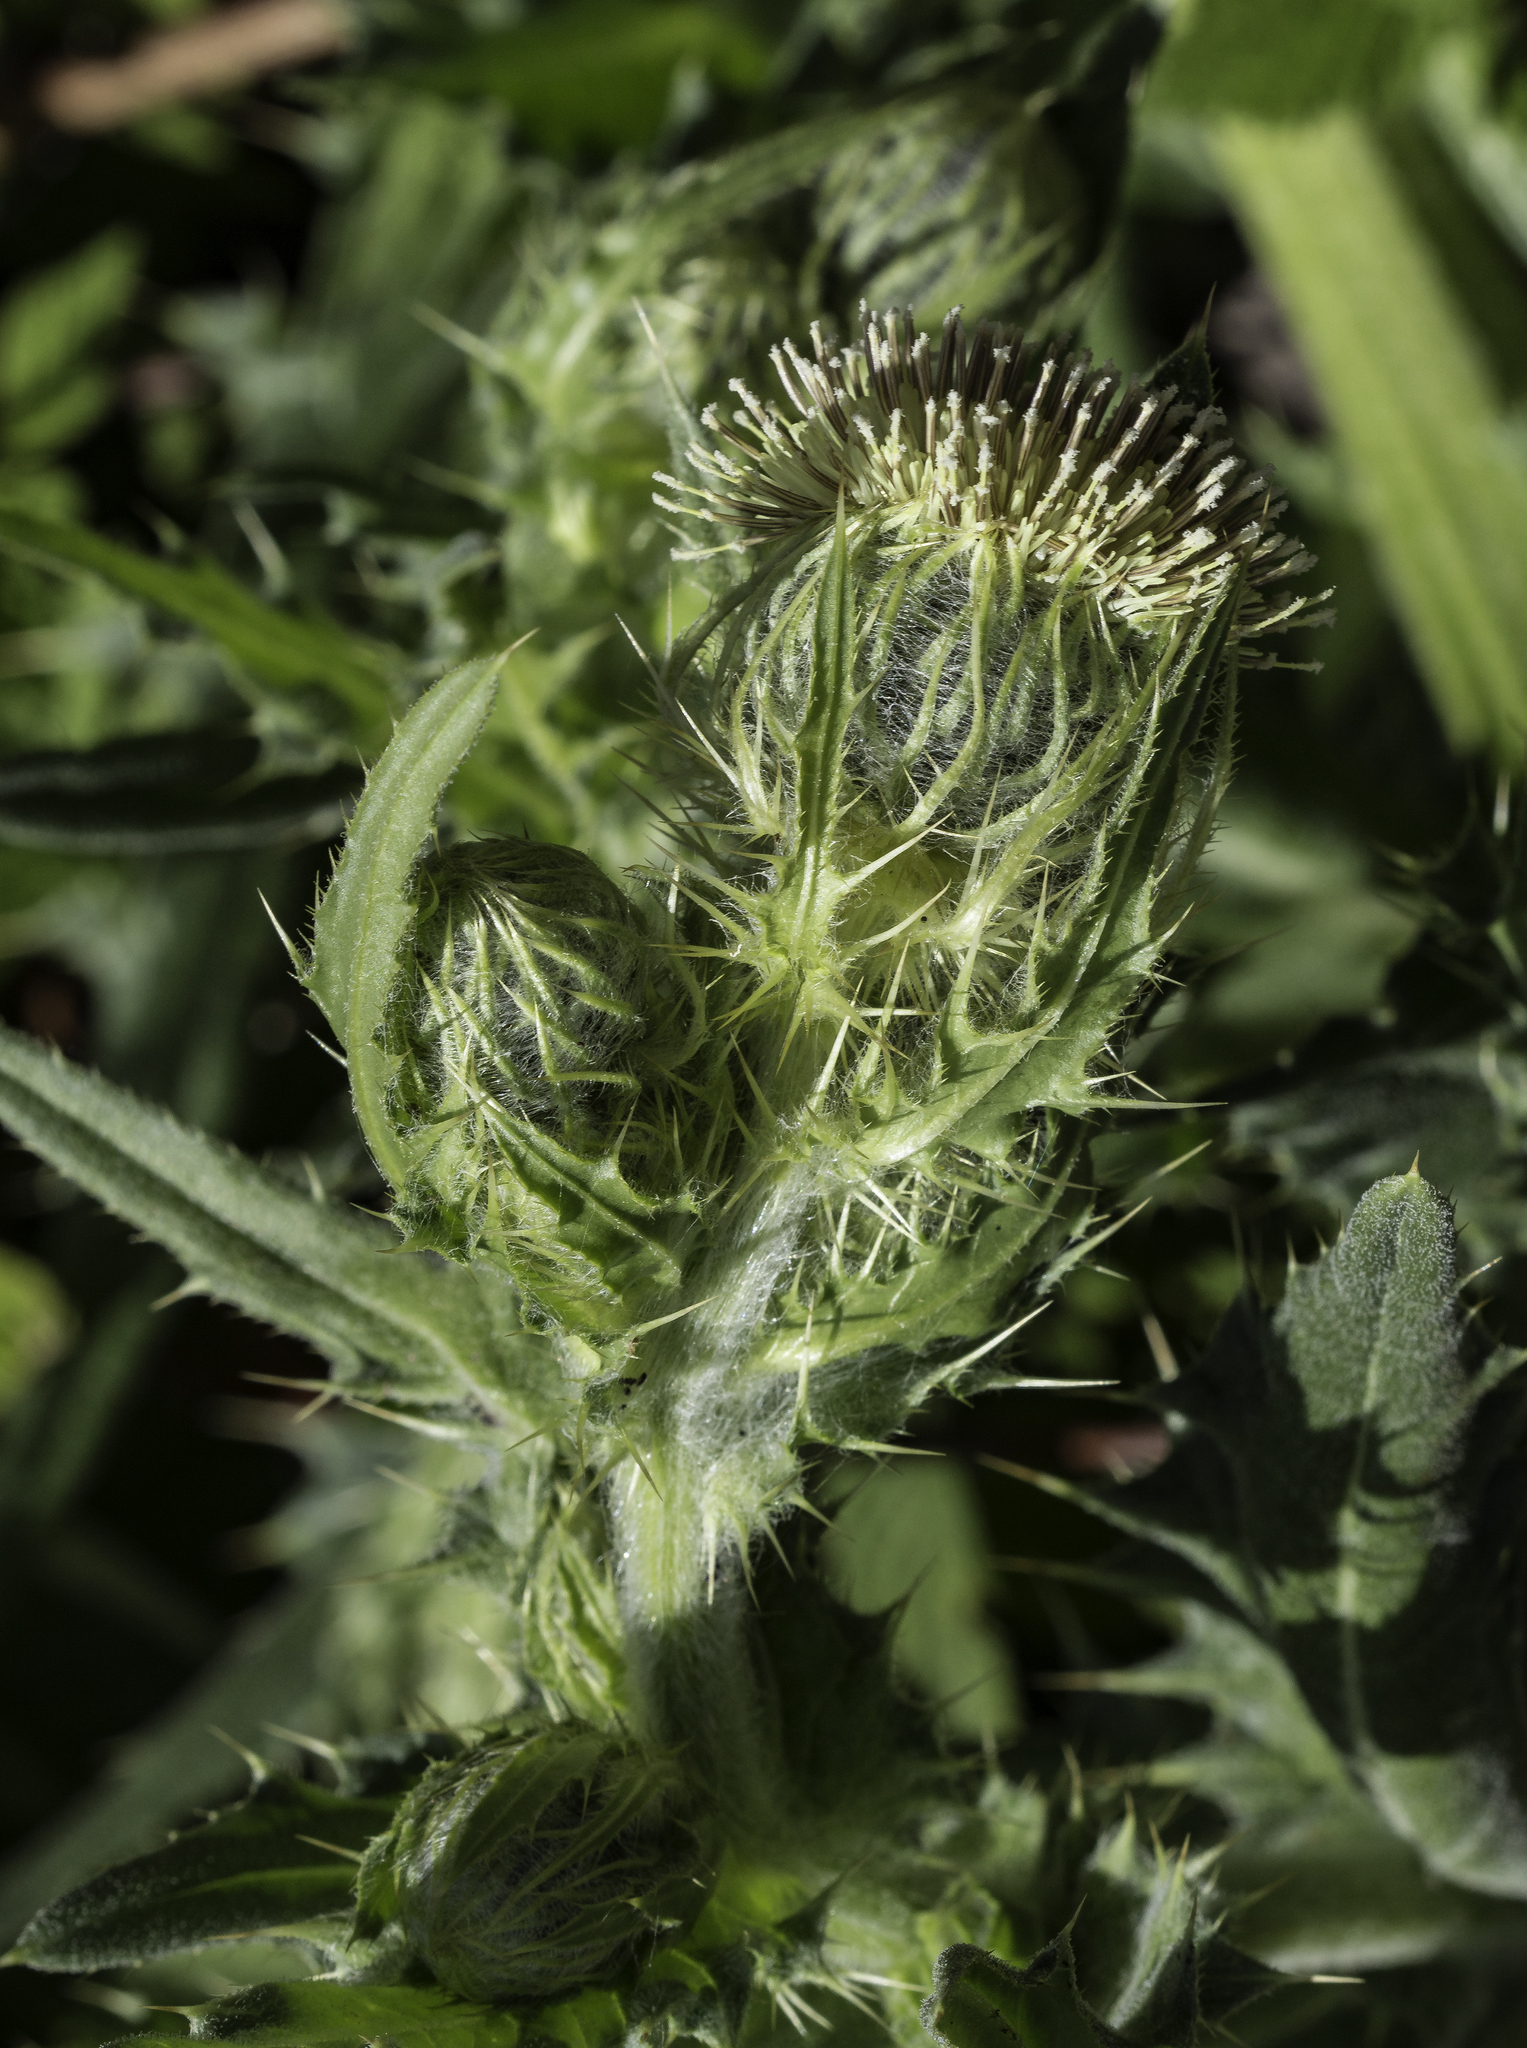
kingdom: Plantae
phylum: Tracheophyta
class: Magnoliopsida
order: Asterales
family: Asteraceae
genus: Cirsium
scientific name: Cirsium parryi
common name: Parry's thistle
